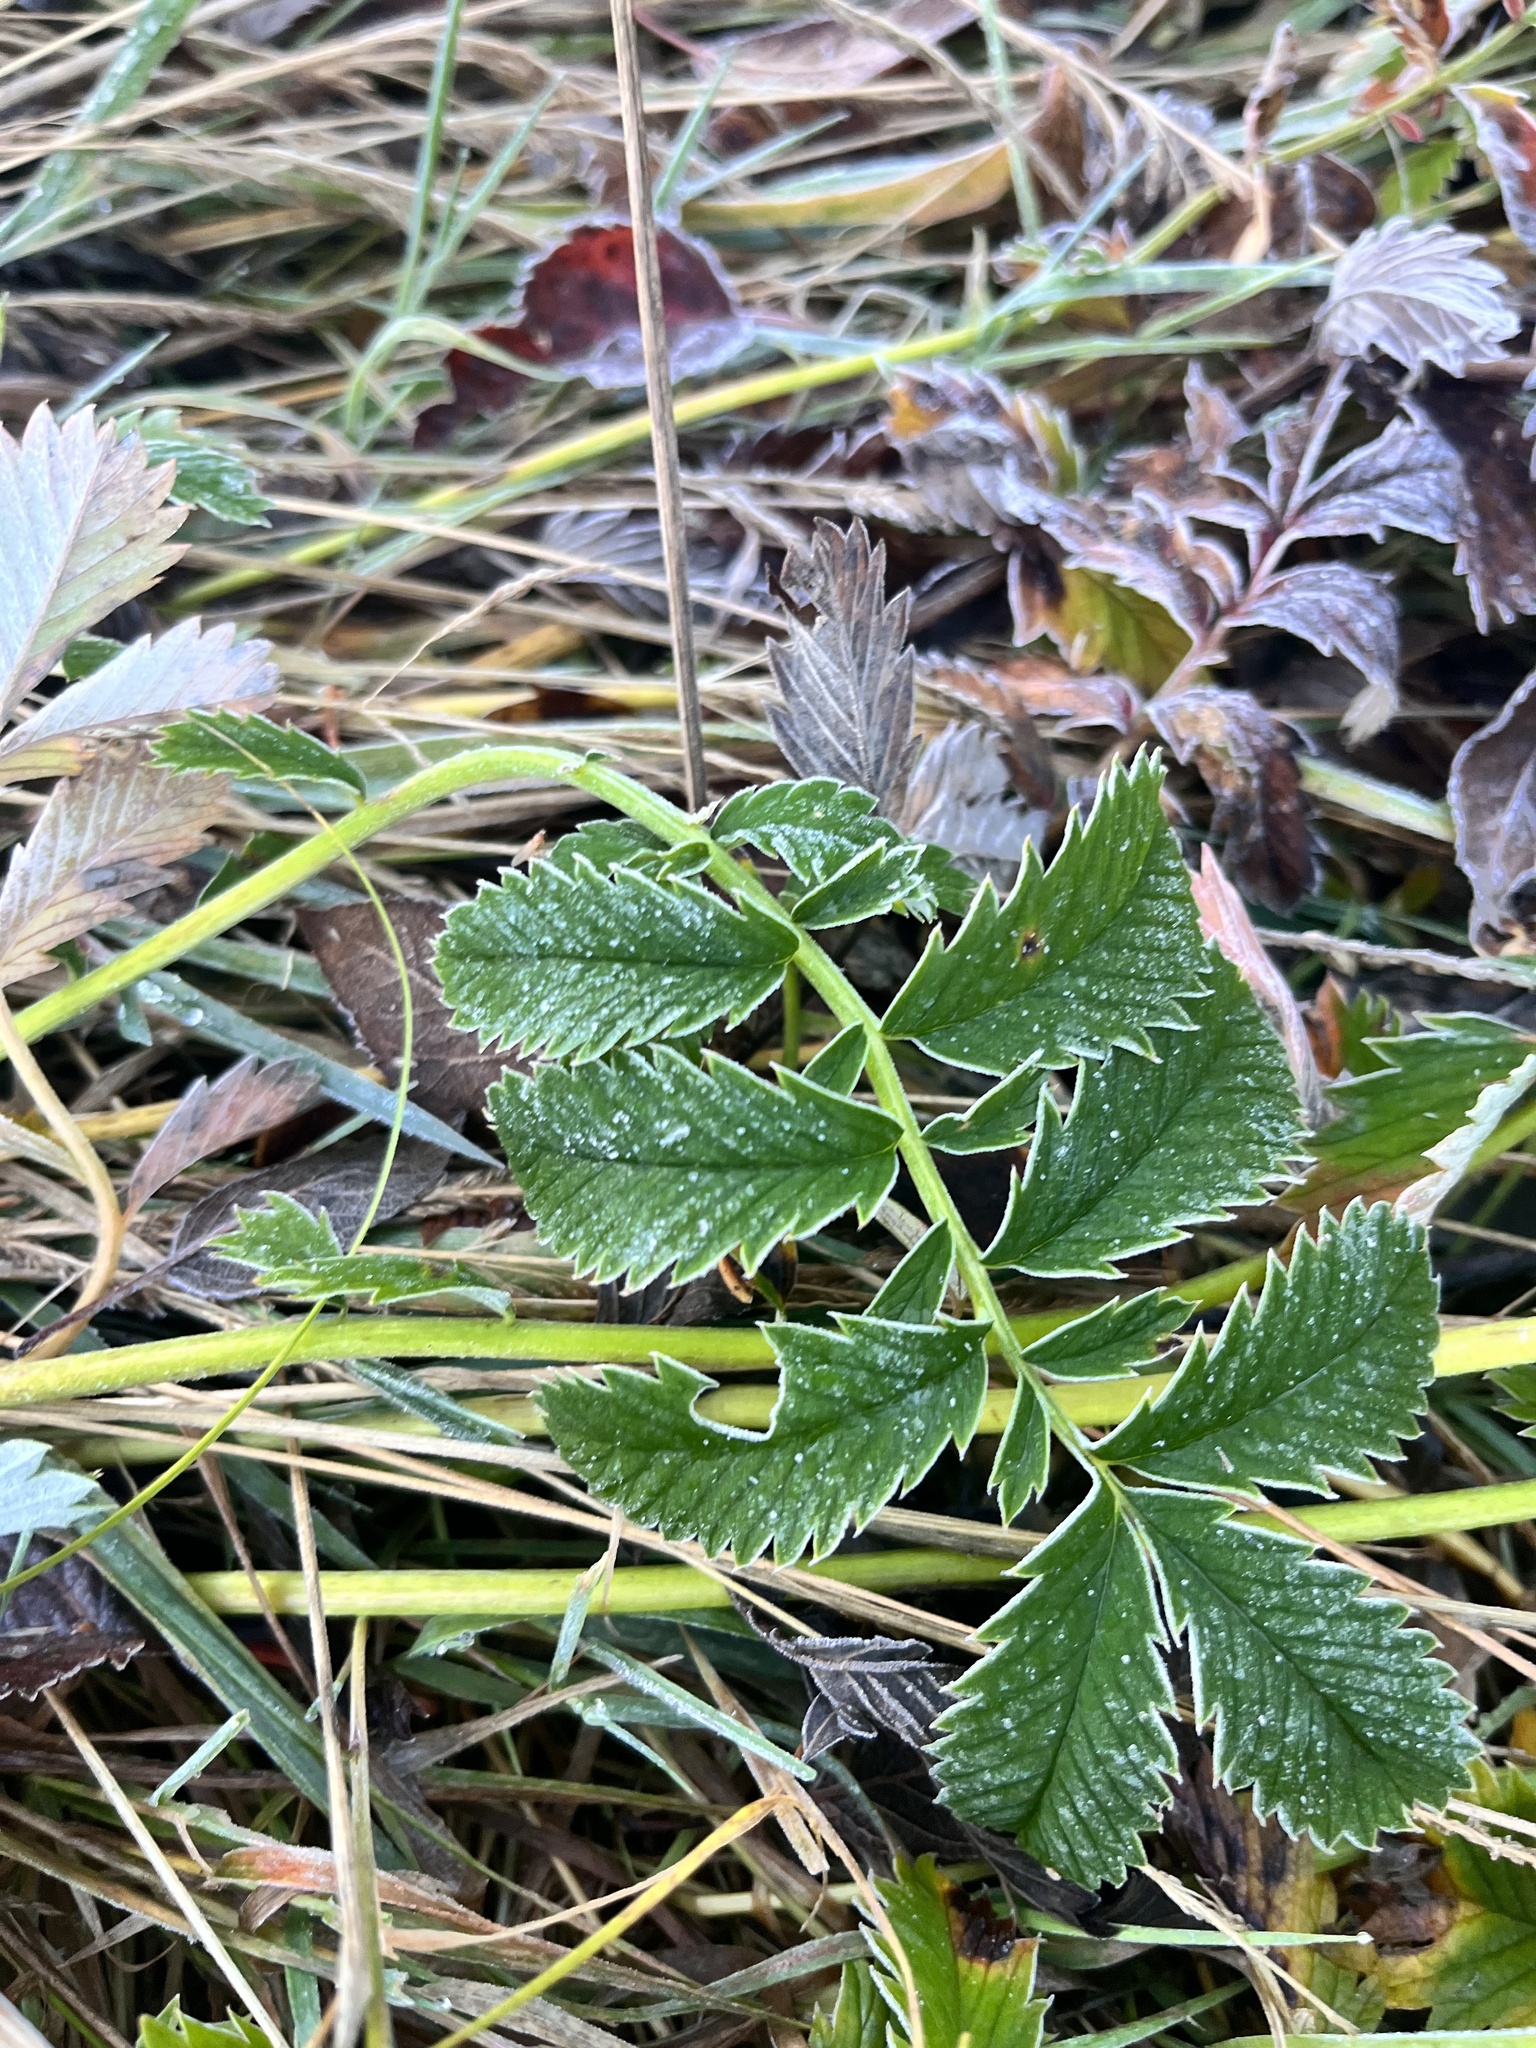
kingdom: Plantae
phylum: Tracheophyta
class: Magnoliopsida
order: Rosales
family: Rosaceae
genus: Argentina
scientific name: Argentina anserina
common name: Common silverweed
